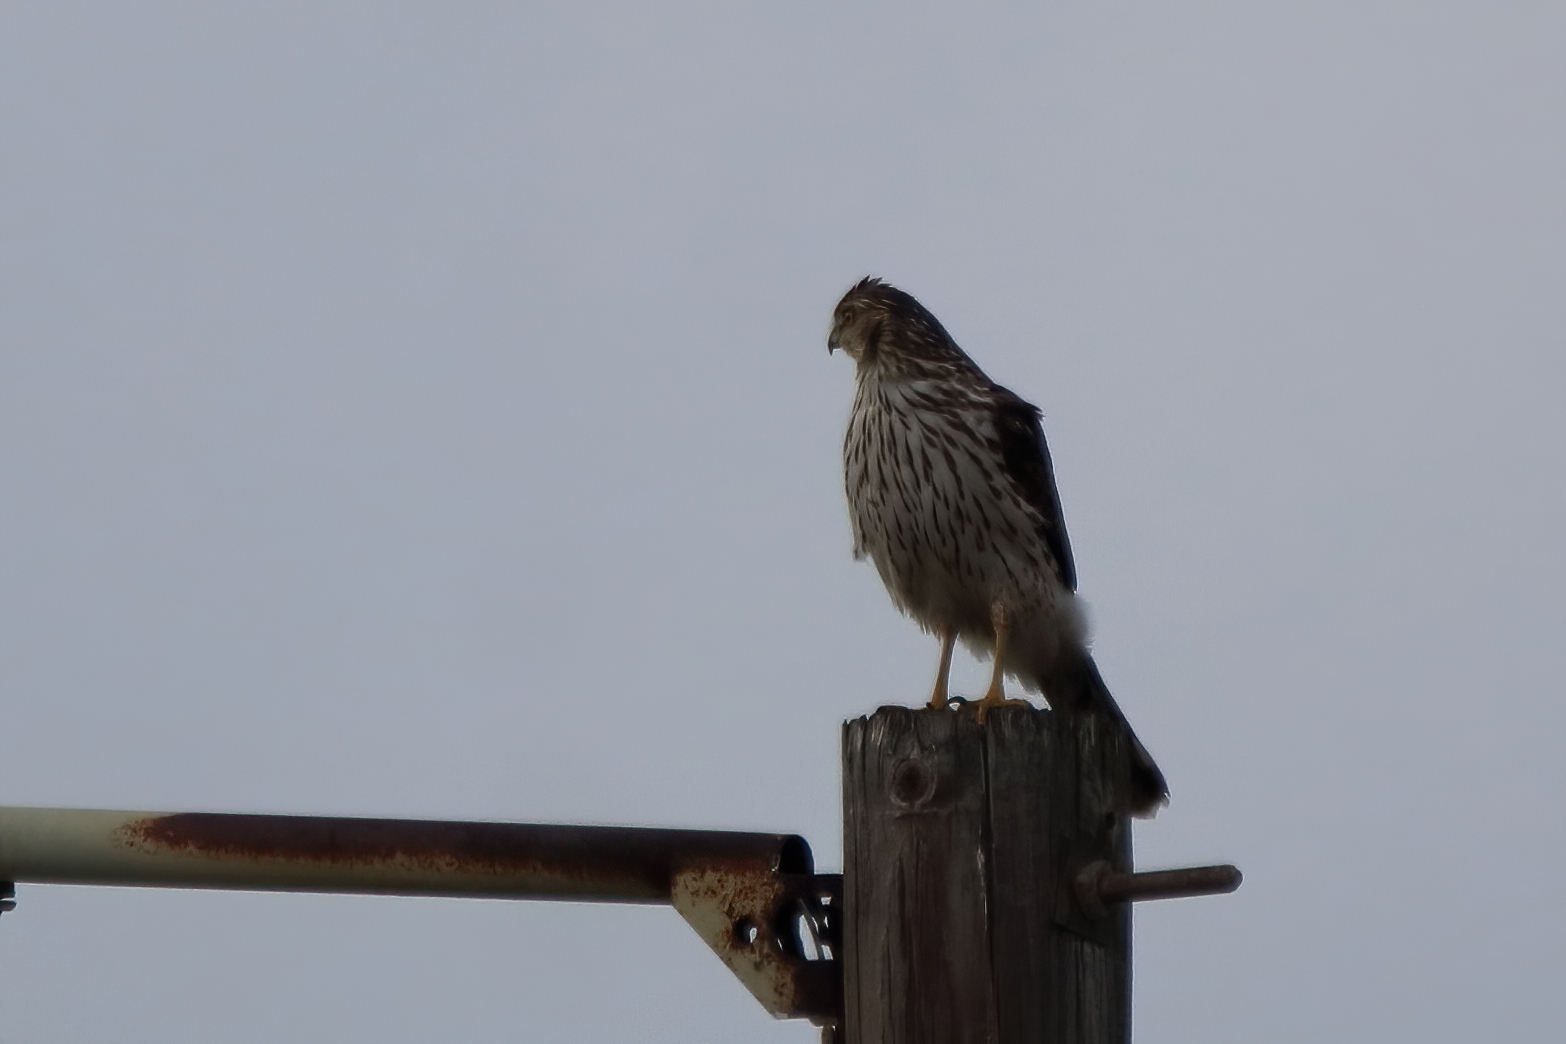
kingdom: Animalia
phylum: Chordata
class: Aves
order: Accipitriformes
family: Accipitridae
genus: Accipiter
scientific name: Accipiter cooperii
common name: Cooper's hawk
